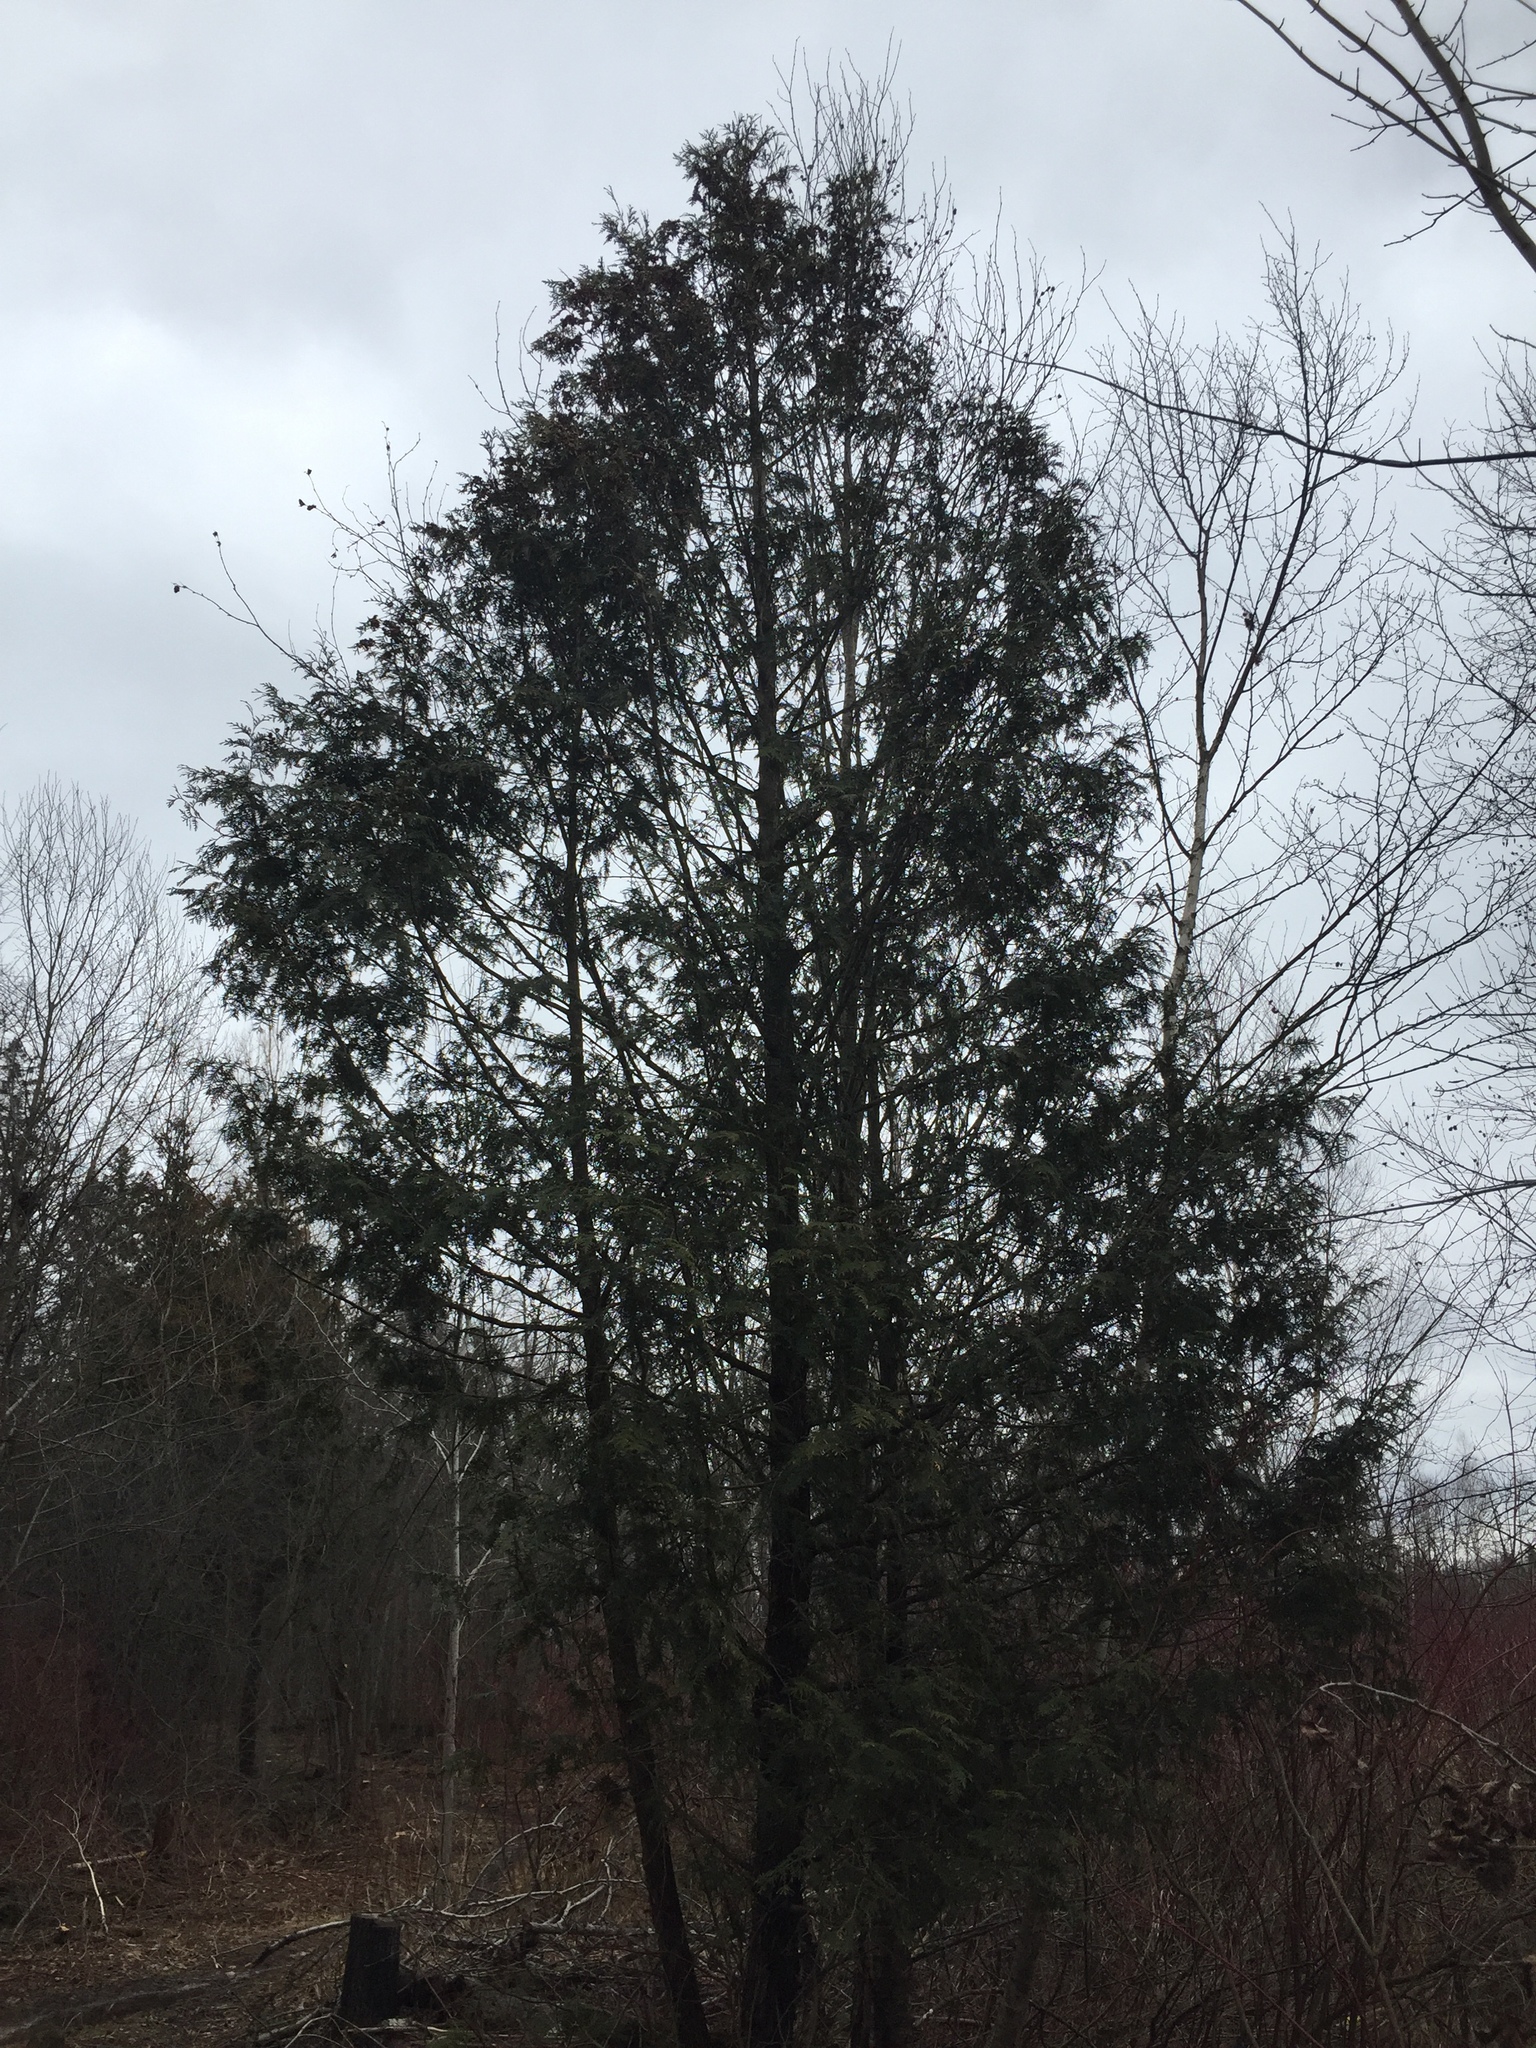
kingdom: Plantae
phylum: Tracheophyta
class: Pinopsida
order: Pinales
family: Cupressaceae
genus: Thuja
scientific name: Thuja occidentalis
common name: Northern white-cedar
